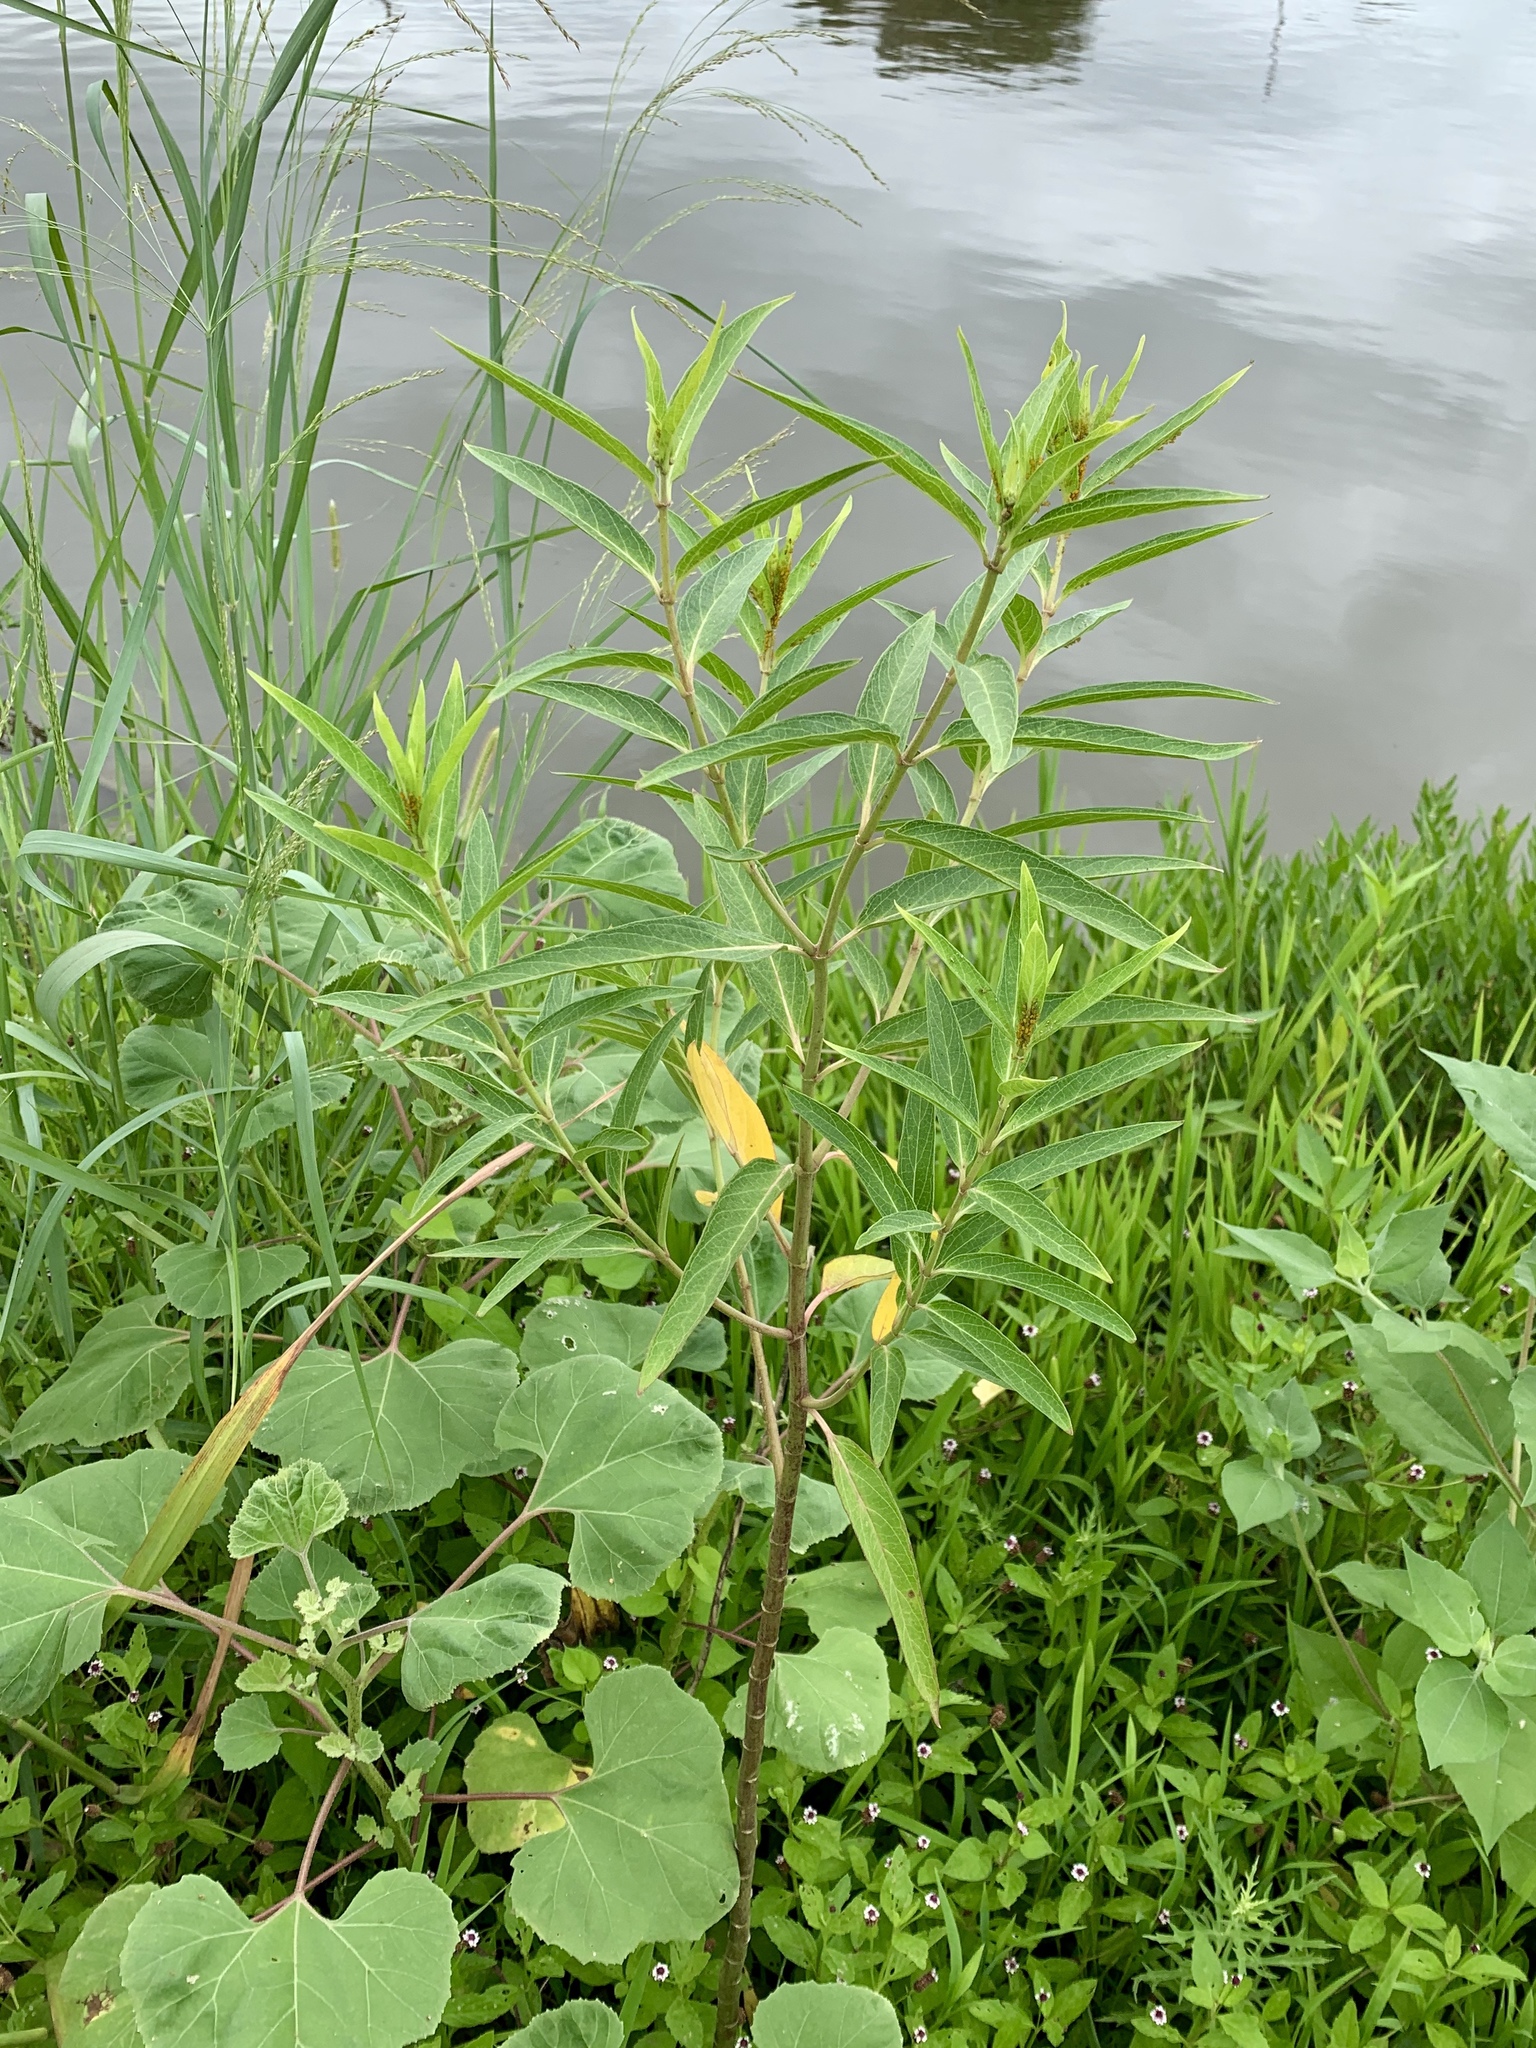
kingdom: Plantae
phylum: Tracheophyta
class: Magnoliopsida
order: Gentianales
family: Apocynaceae
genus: Asclepias
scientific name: Asclepias incarnata
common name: Swamp milkweed
